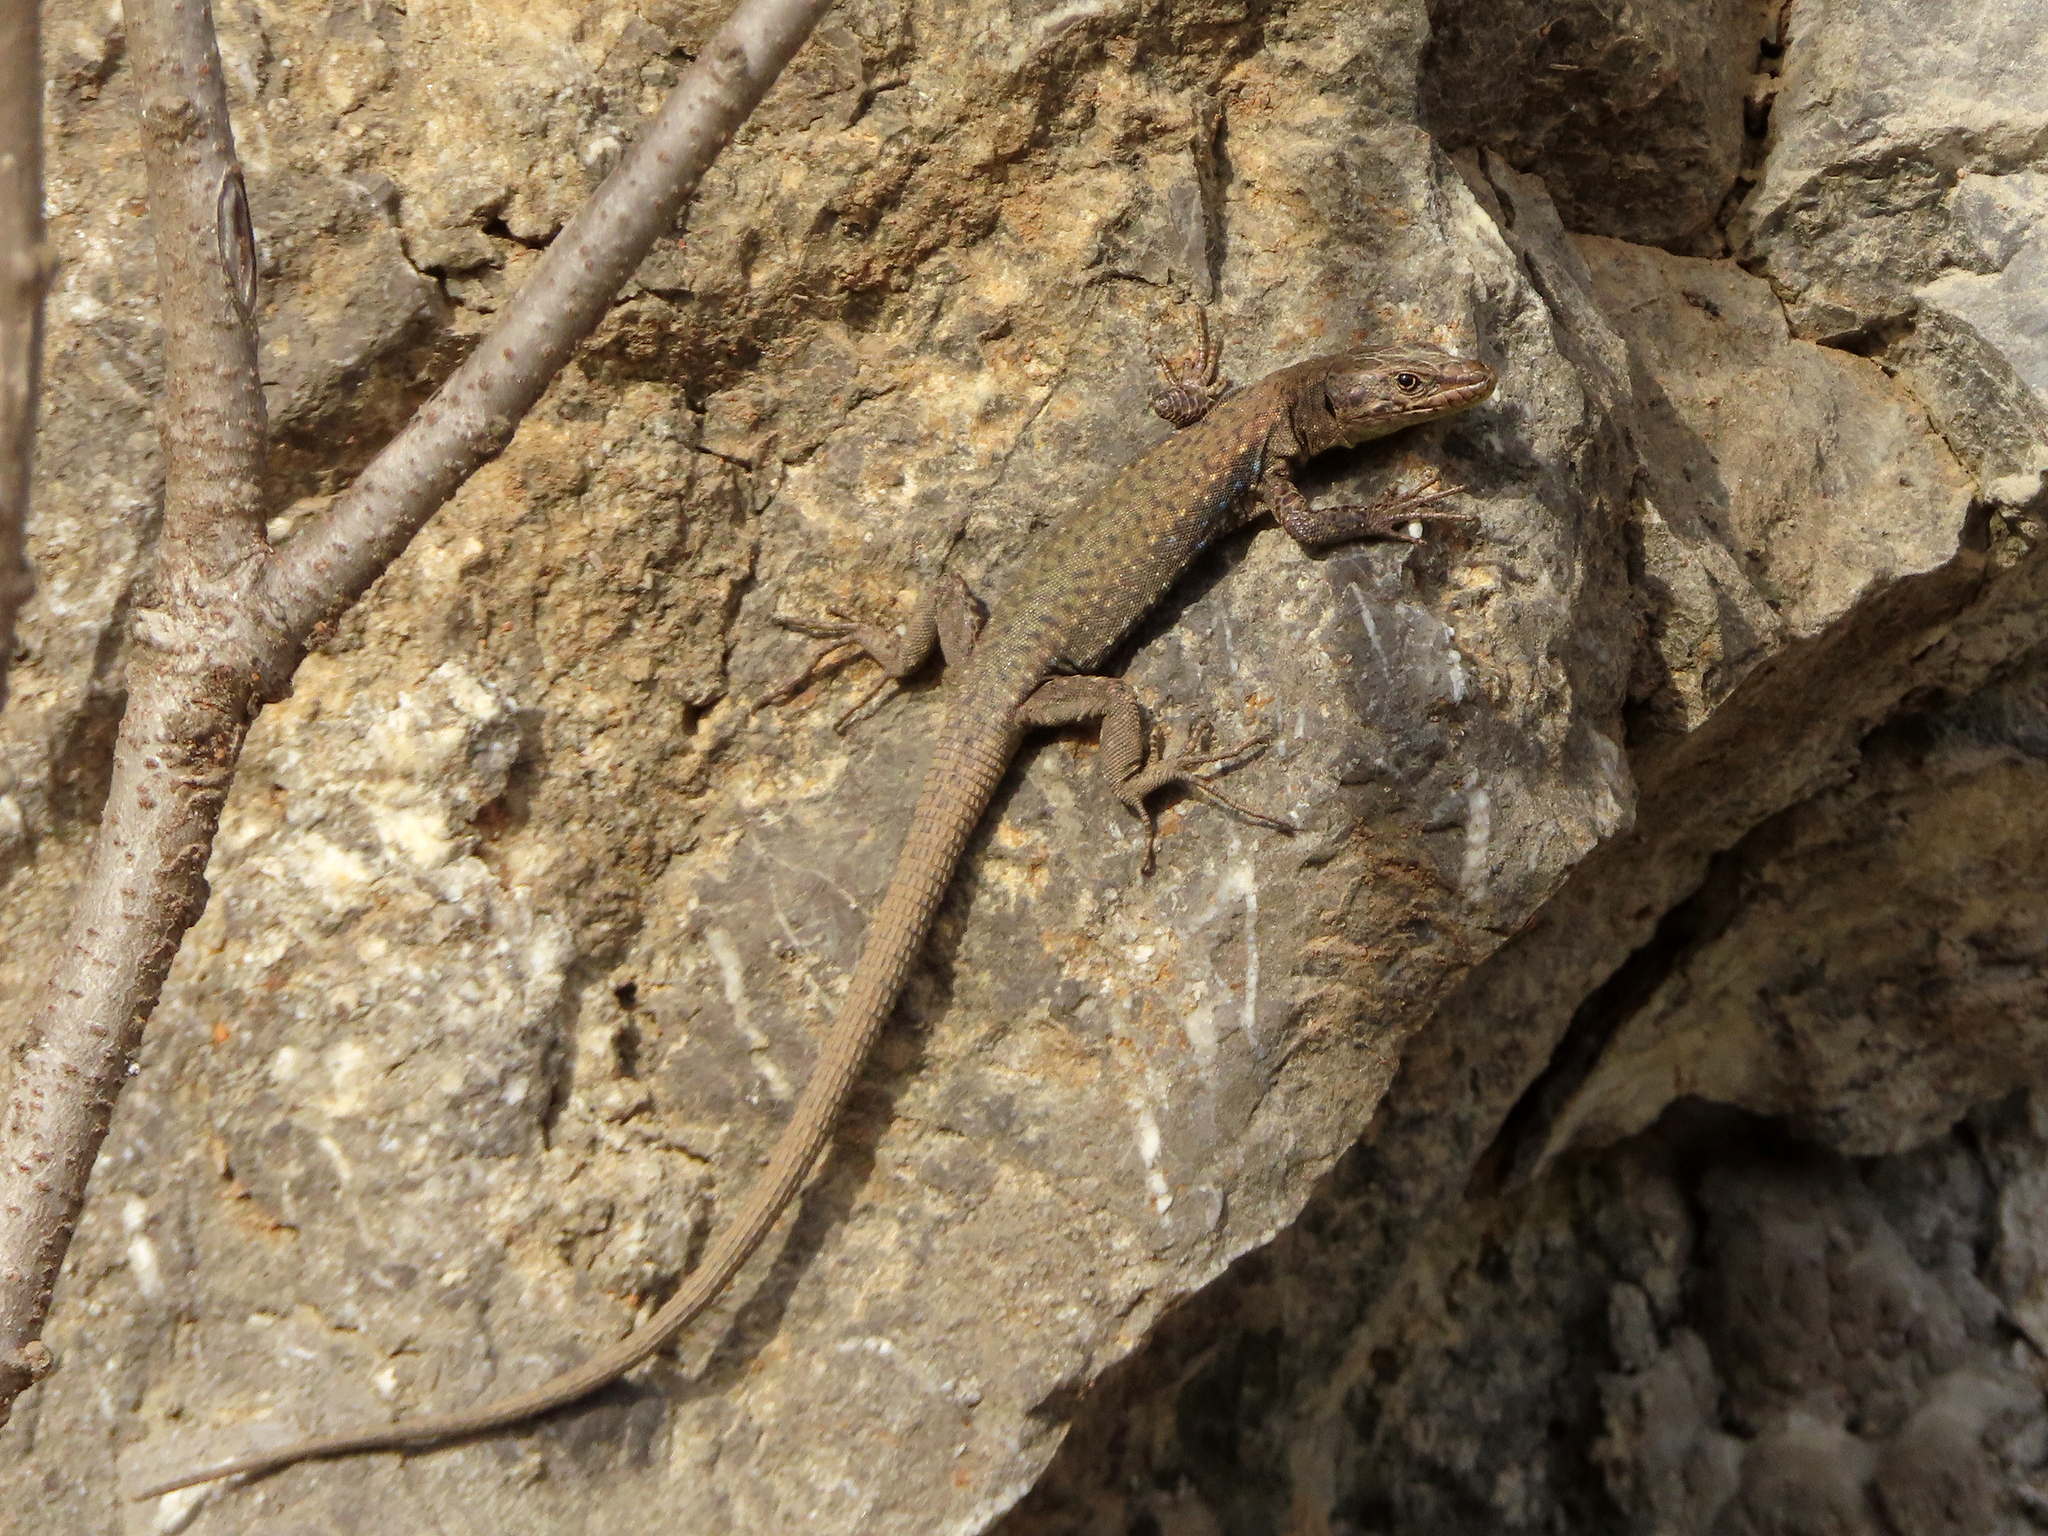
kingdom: Animalia
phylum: Chordata
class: Squamata
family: Lacertidae
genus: Darevskia
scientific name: Darevskia bithynica
